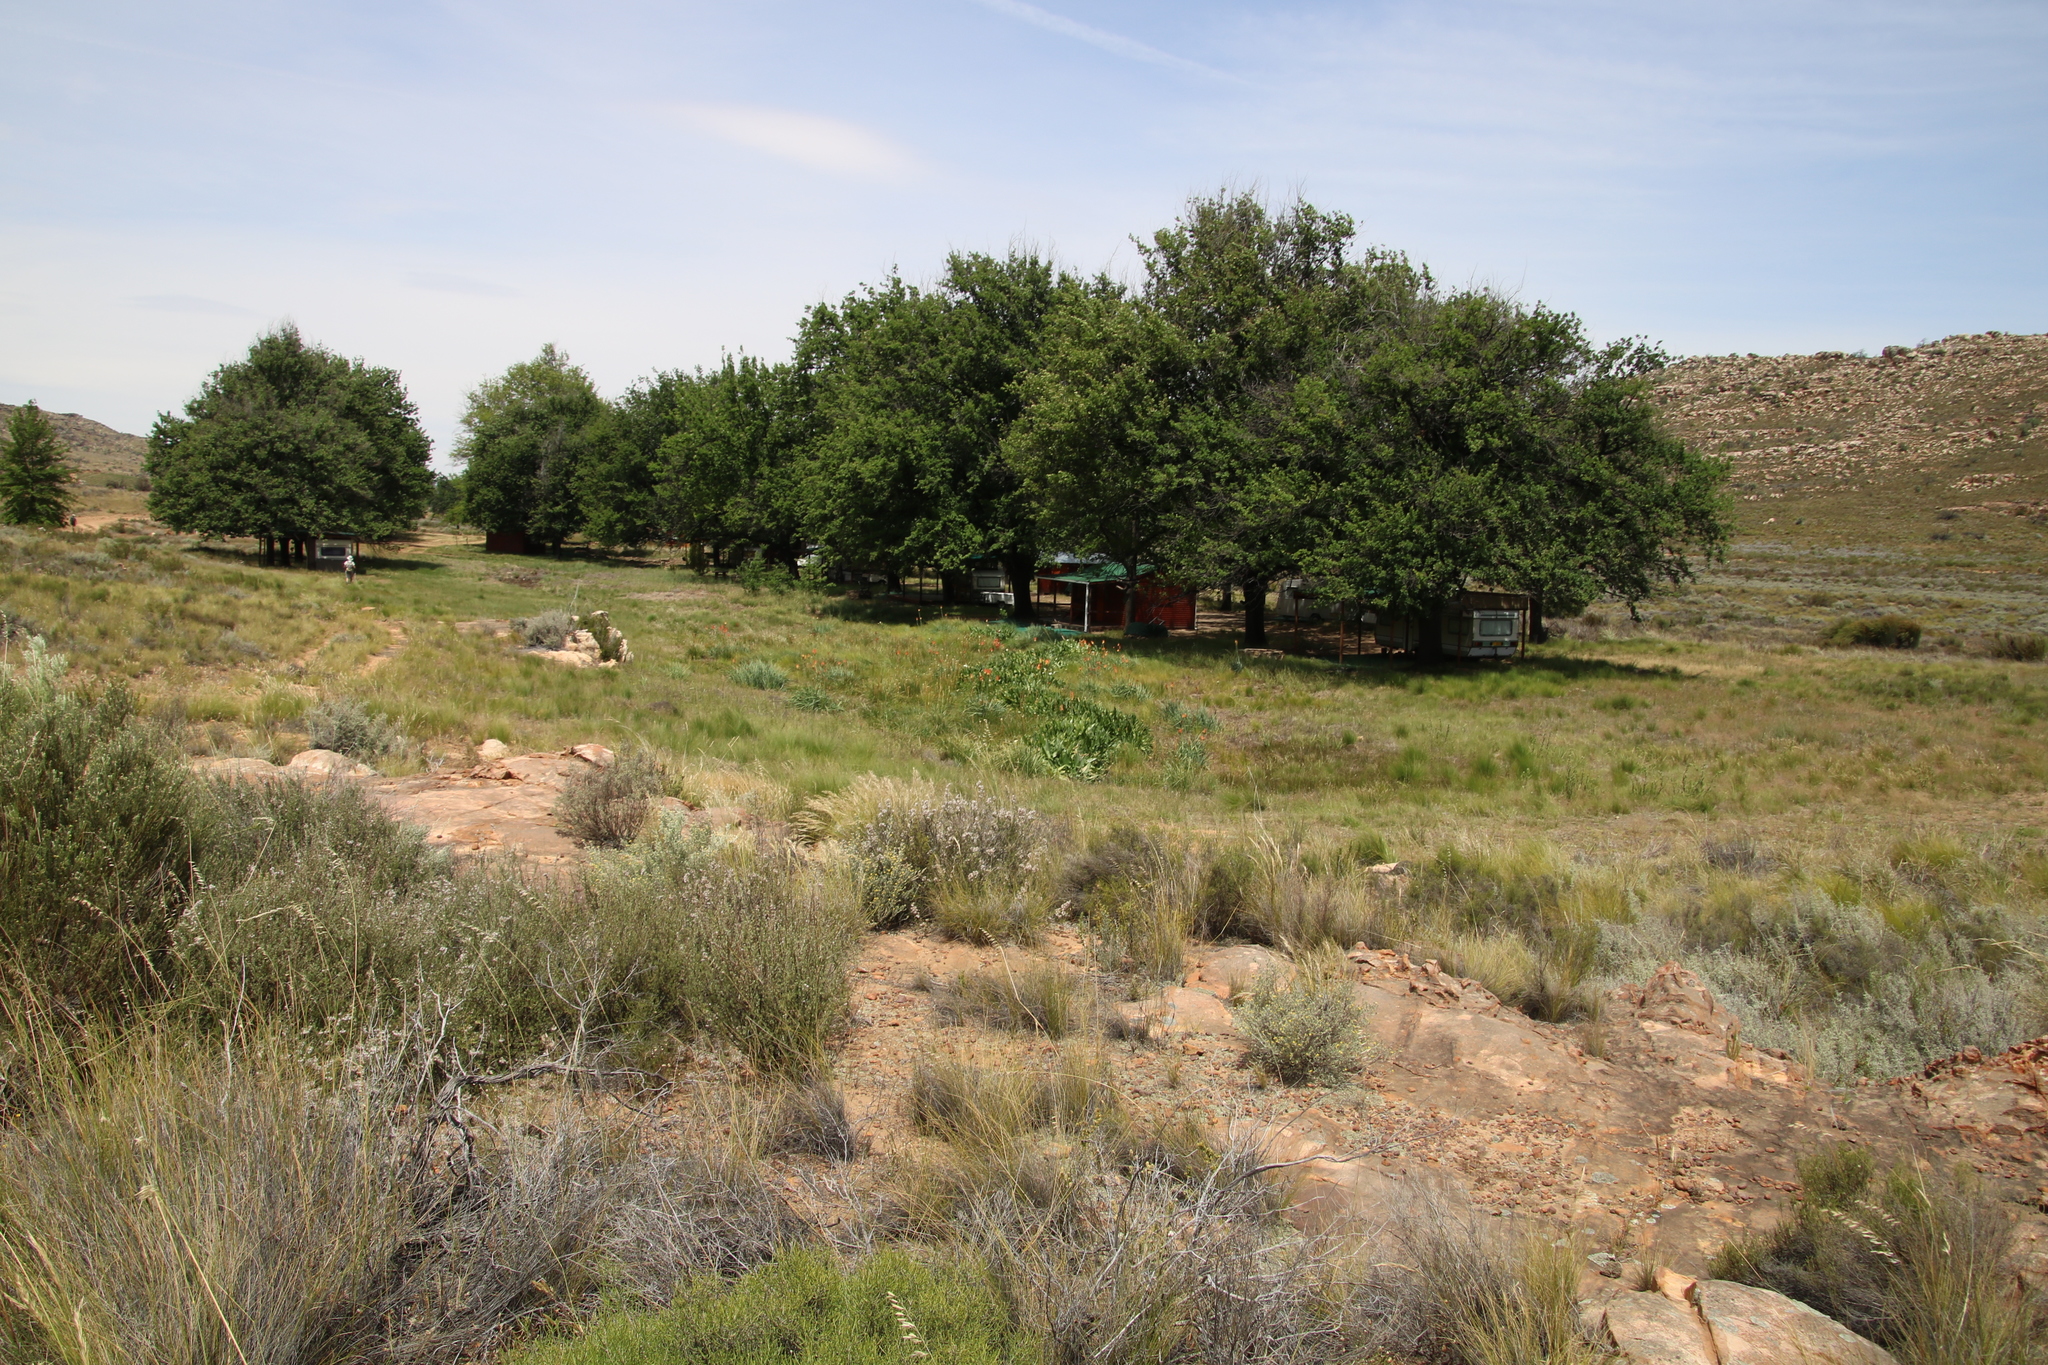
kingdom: Plantae
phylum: Tracheophyta
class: Liliopsida
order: Asparagales
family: Asphodelaceae
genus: Kniphofia
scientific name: Kniphofia uvaria
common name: Red-hot-poker
